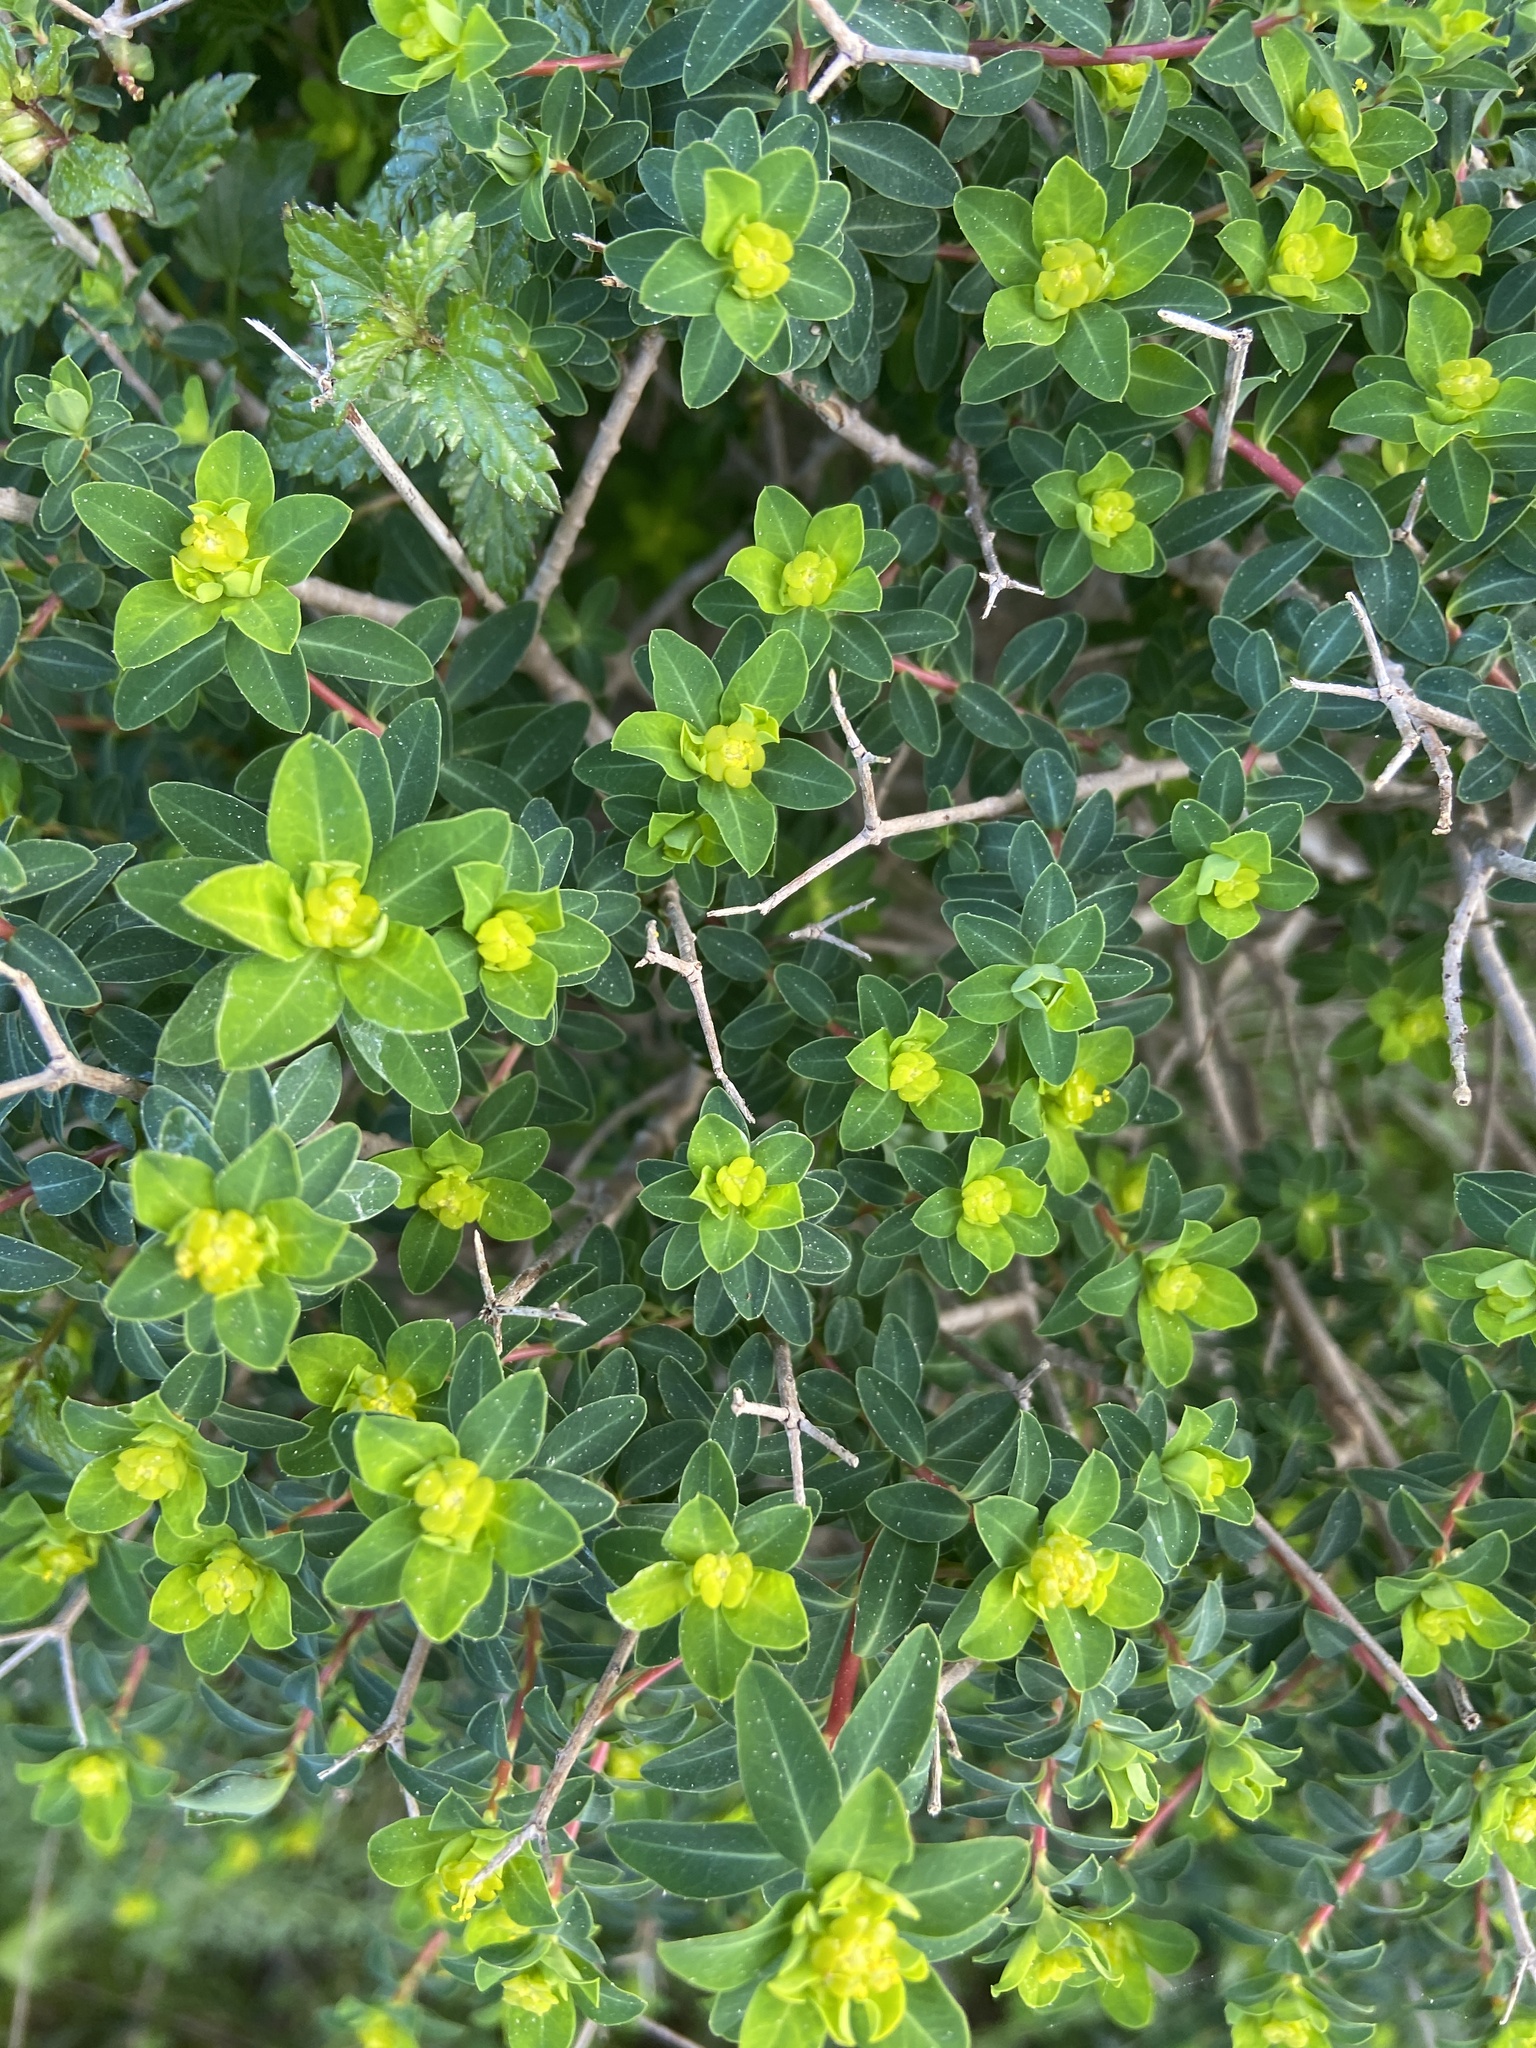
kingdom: Plantae
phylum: Tracheophyta
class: Magnoliopsida
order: Malpighiales
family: Euphorbiaceae
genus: Euphorbia
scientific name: Euphorbia melitensis
